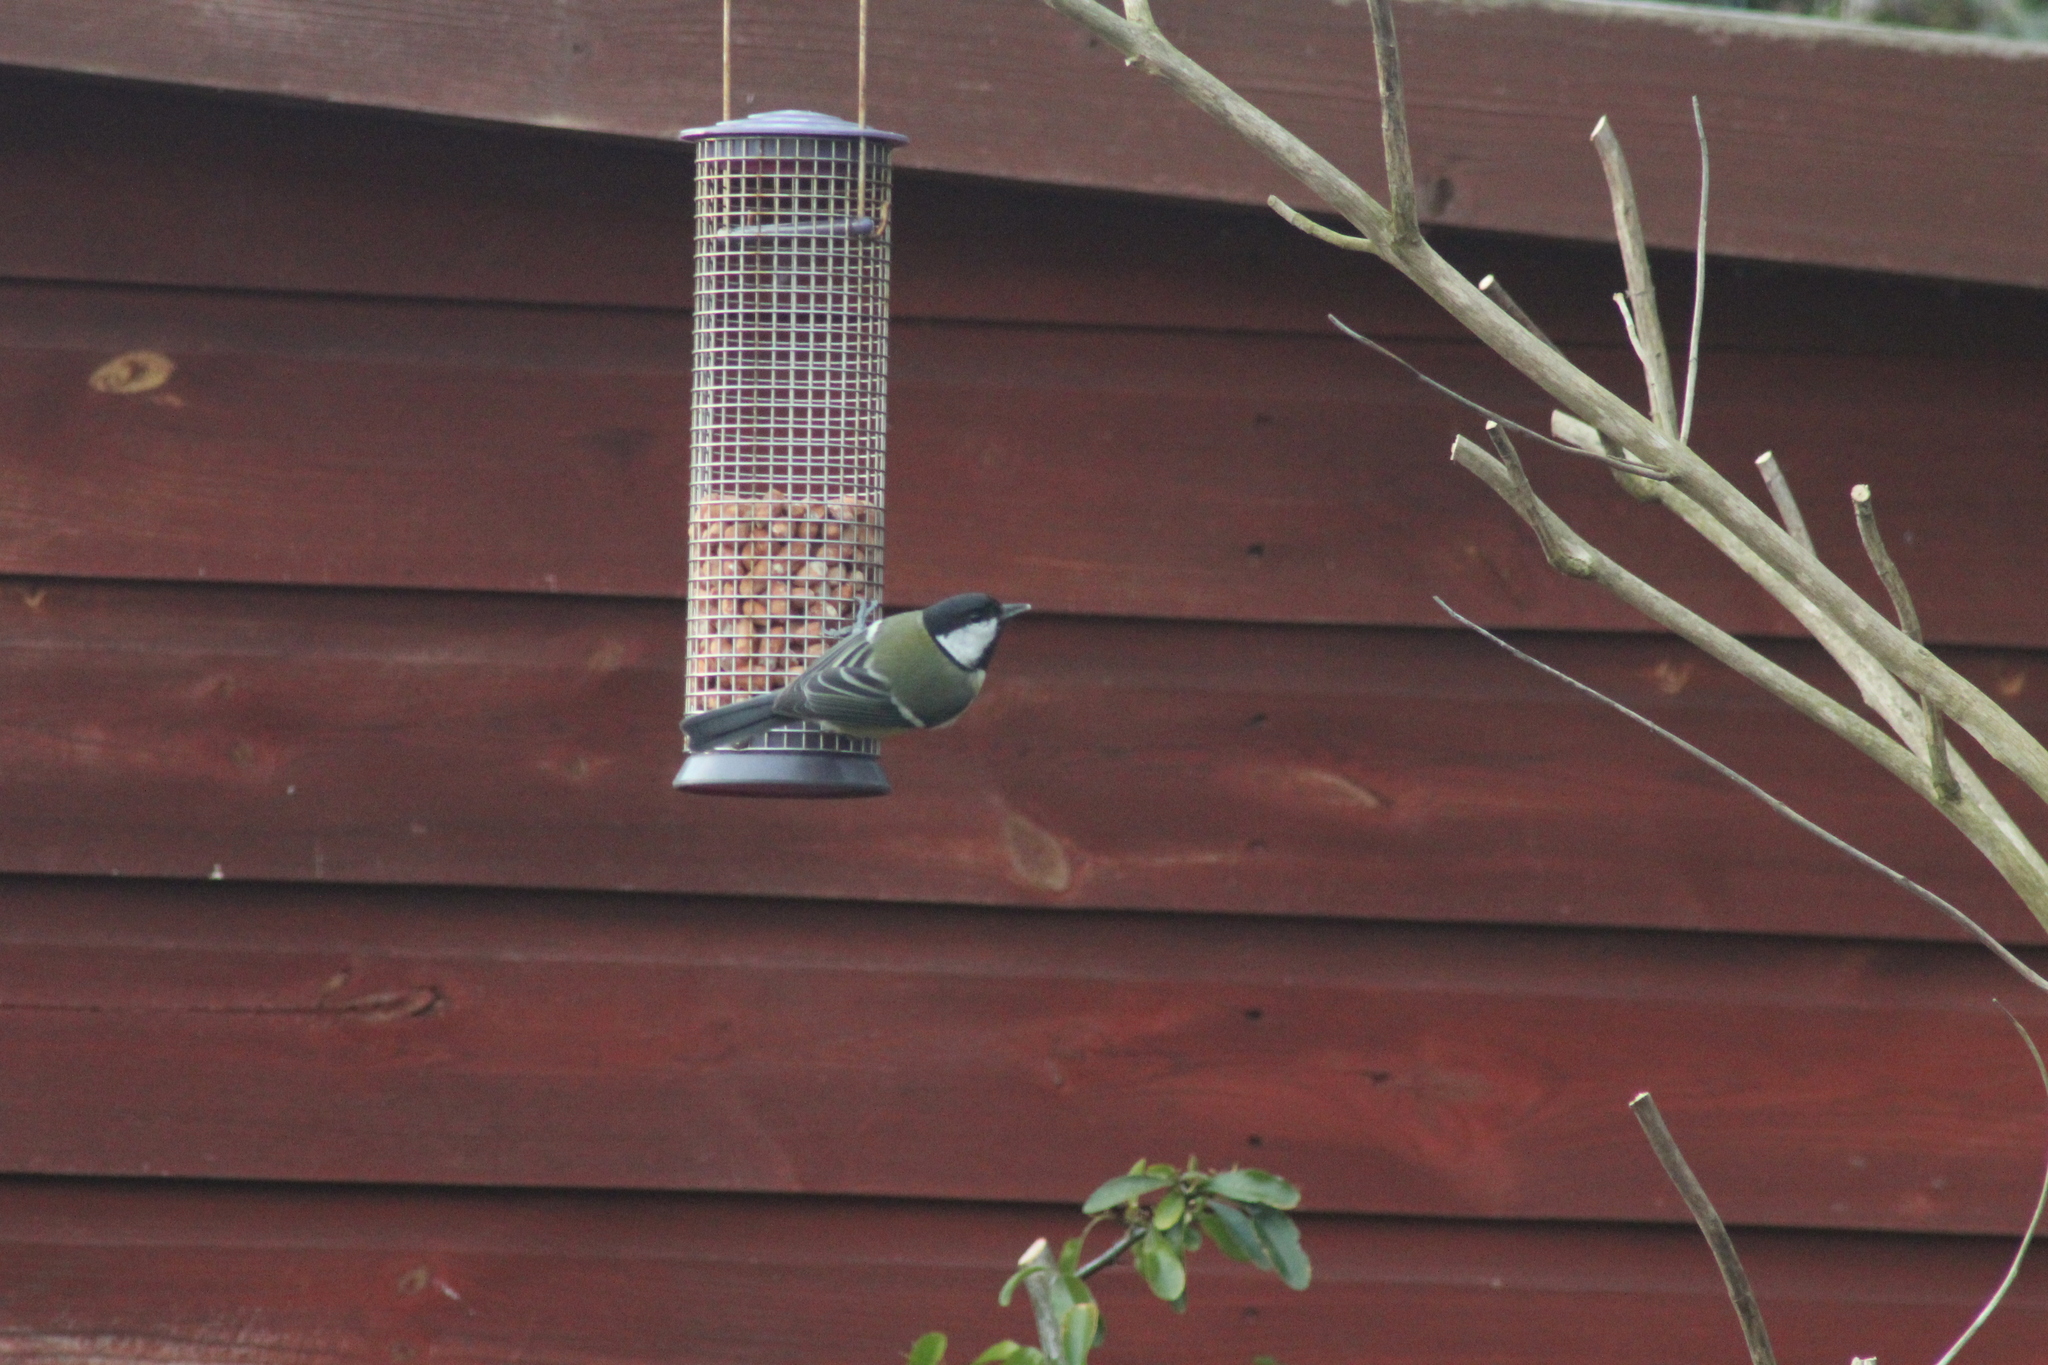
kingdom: Animalia
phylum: Chordata
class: Aves
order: Passeriformes
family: Paridae
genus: Parus
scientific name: Parus major
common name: Great tit
